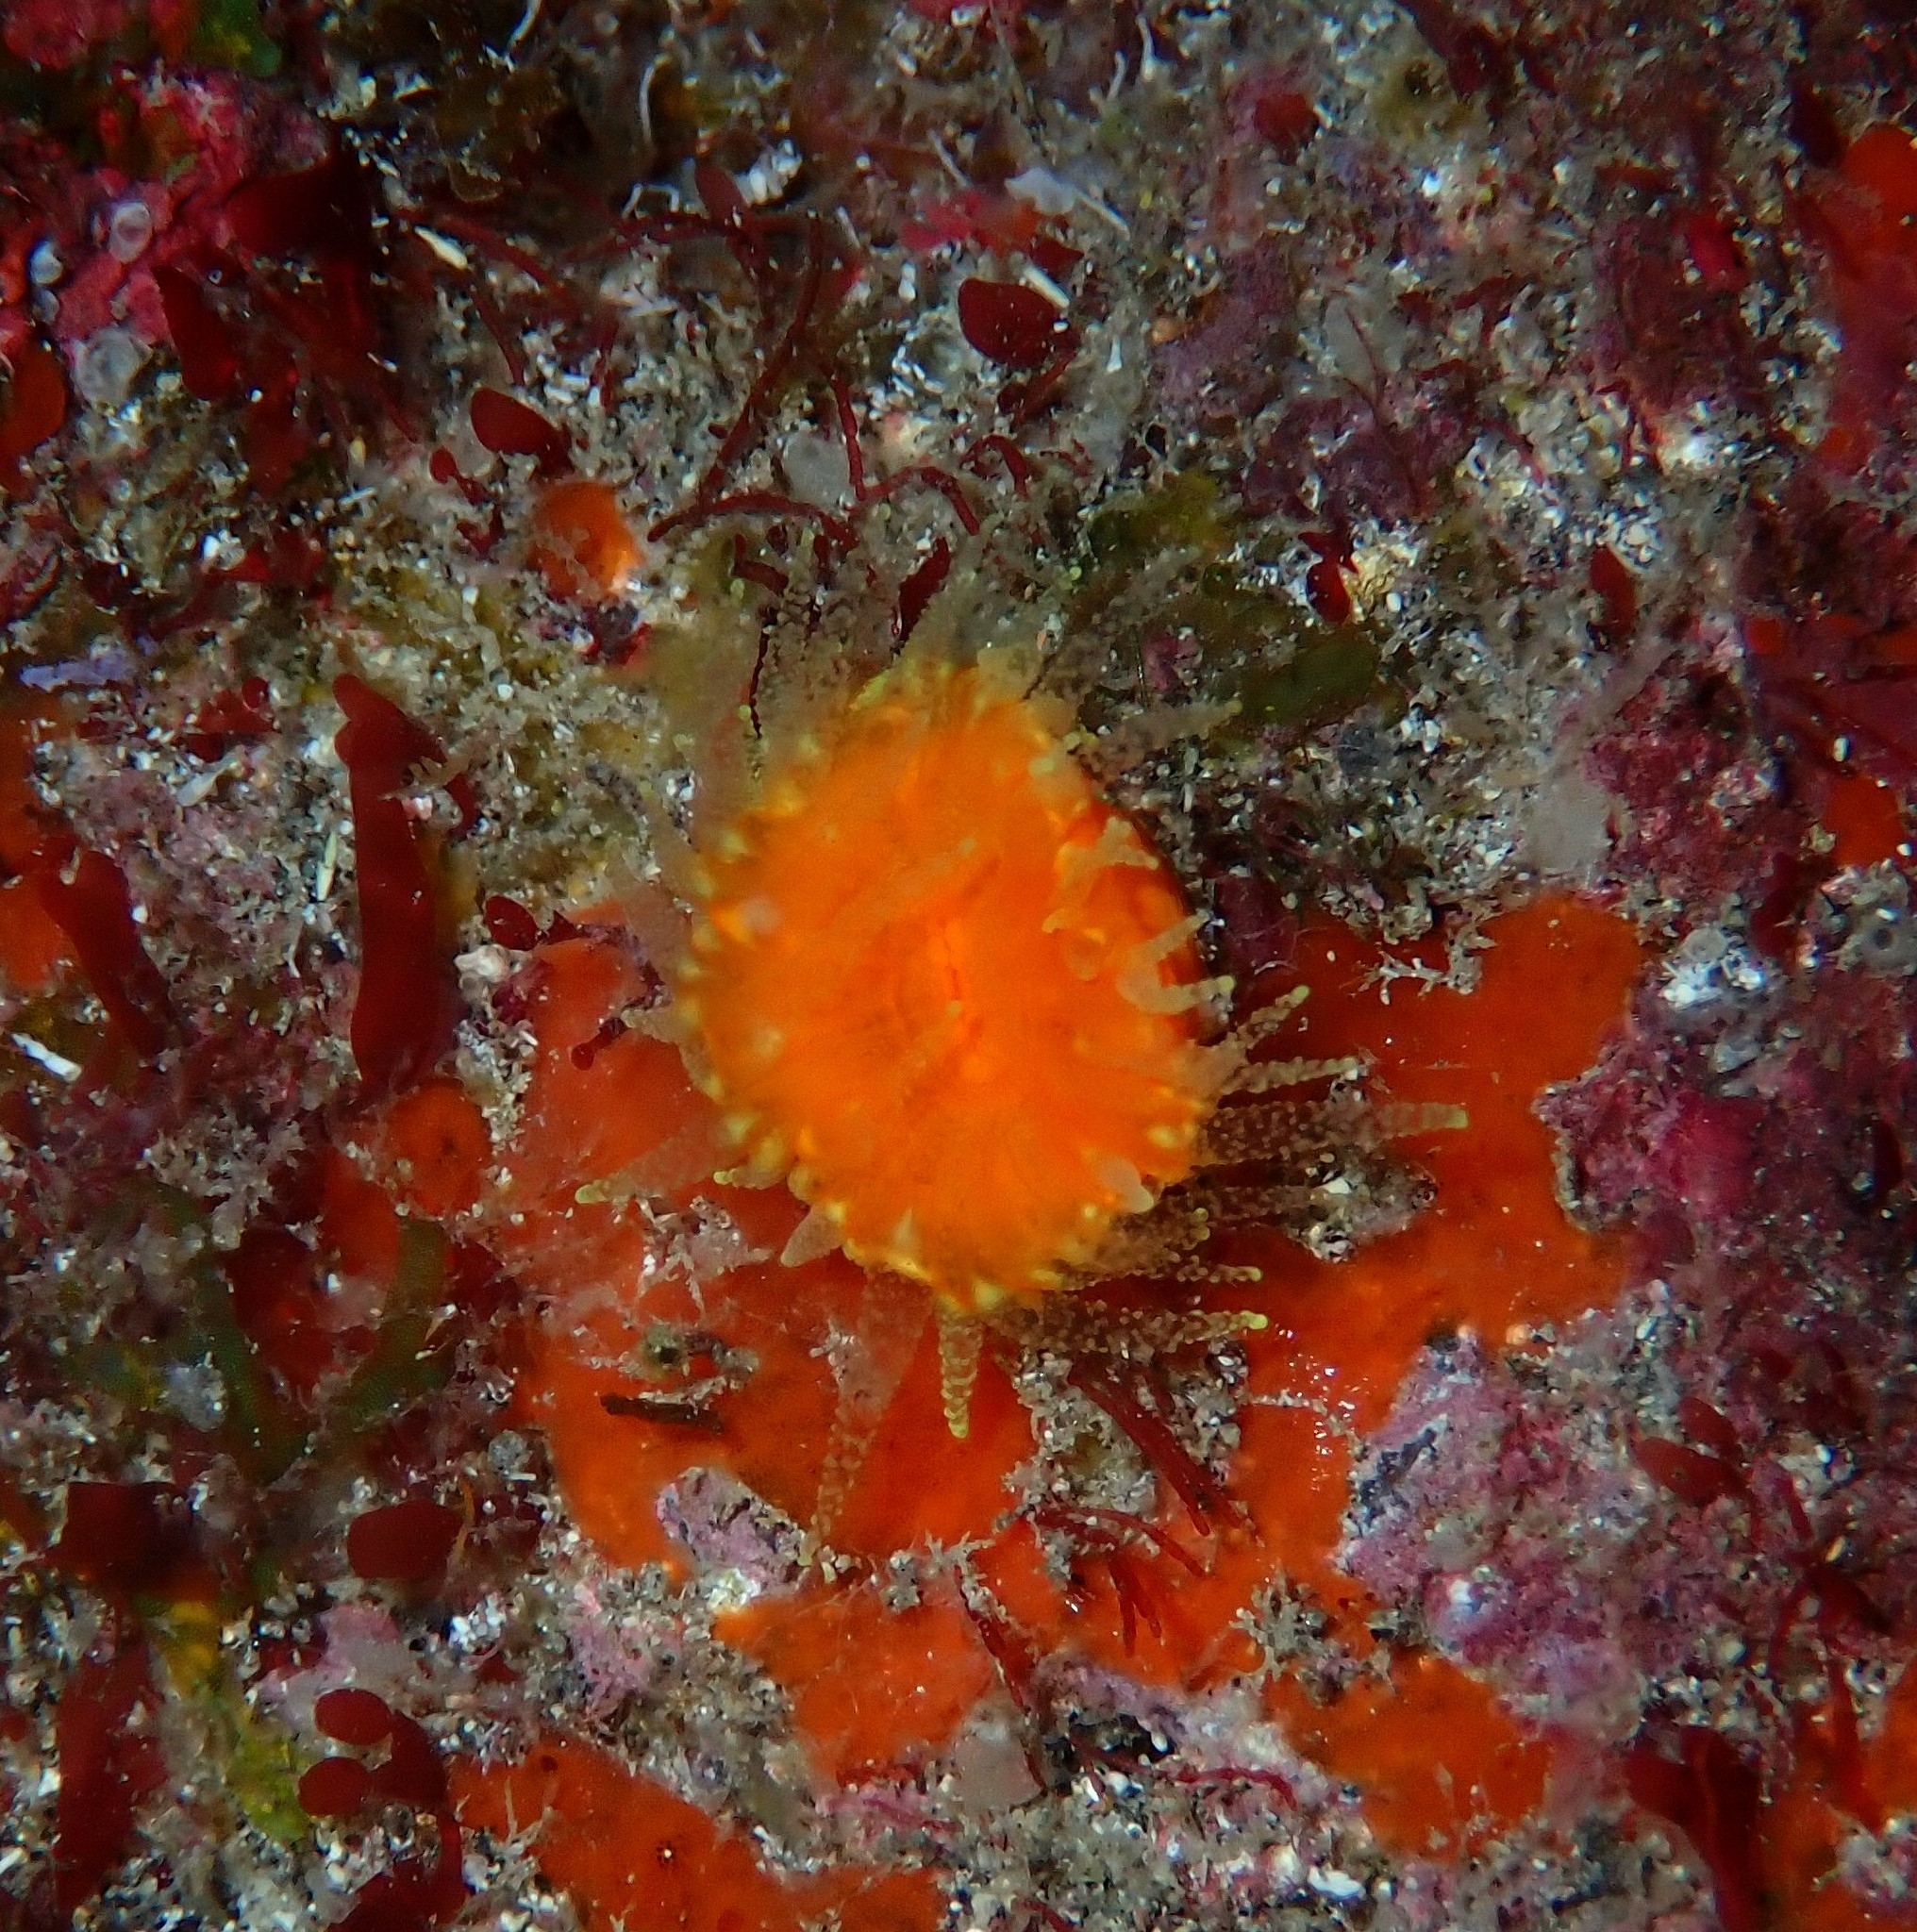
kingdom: Animalia
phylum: Cnidaria
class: Anthozoa
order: Scleractinia
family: Dendrophylliidae
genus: Balanophyllia
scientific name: Balanophyllia regia
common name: Golden star coral
